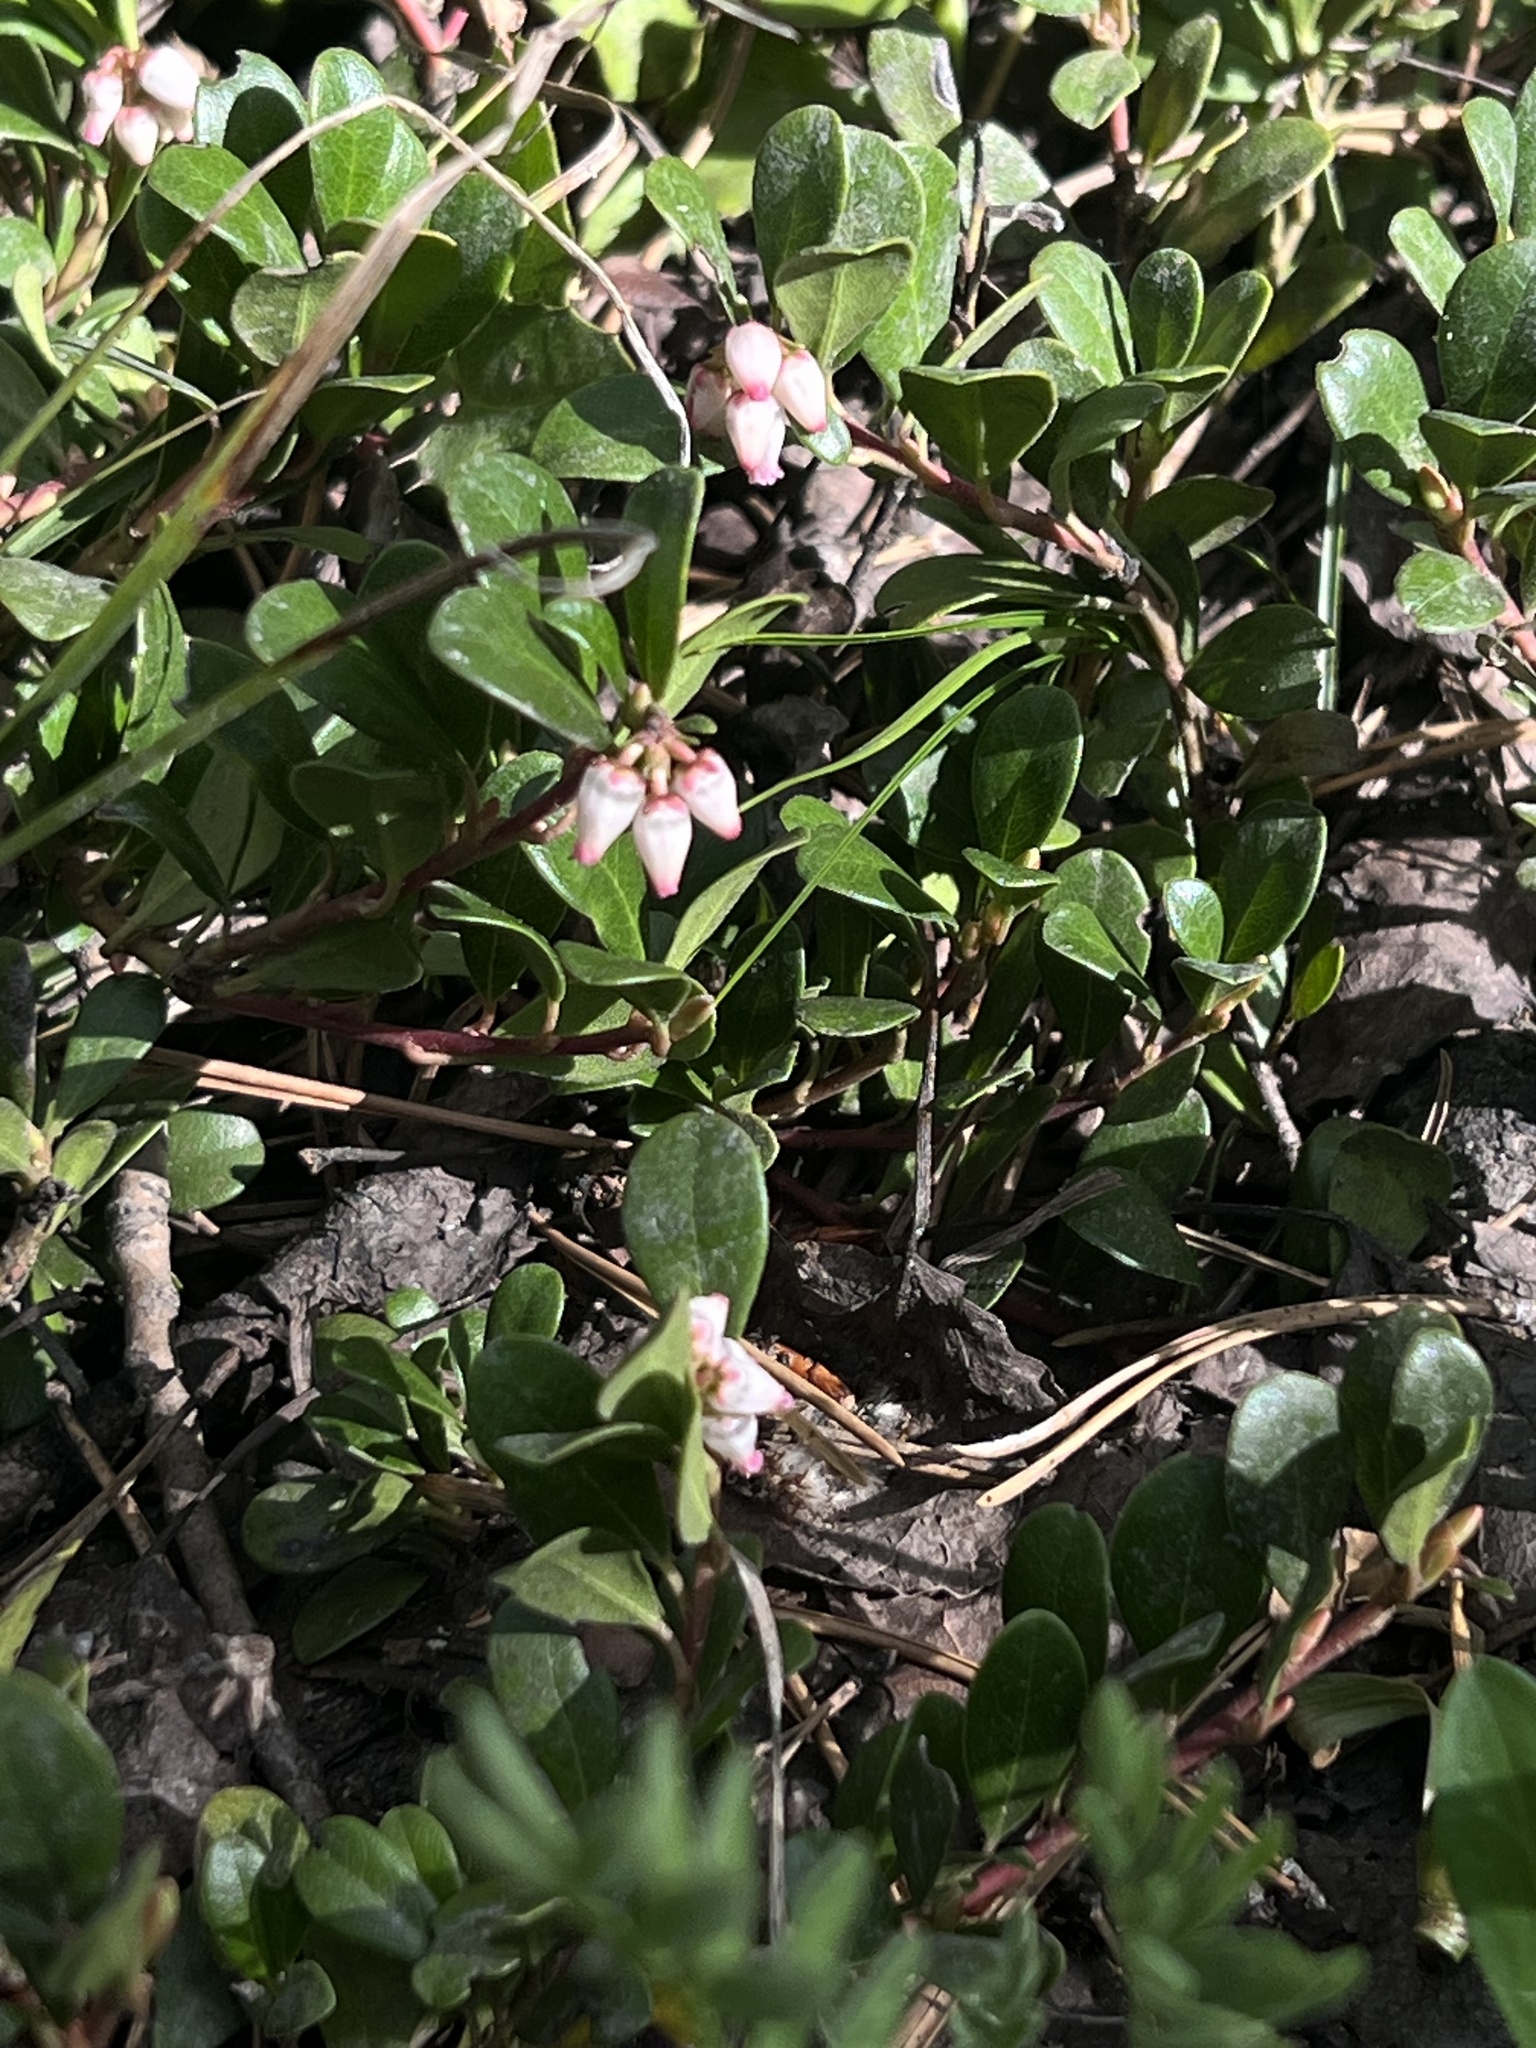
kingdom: Plantae
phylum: Tracheophyta
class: Magnoliopsida
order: Ericales
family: Ericaceae
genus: Arctostaphylos
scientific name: Arctostaphylos uva-ursi
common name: Bearberry
